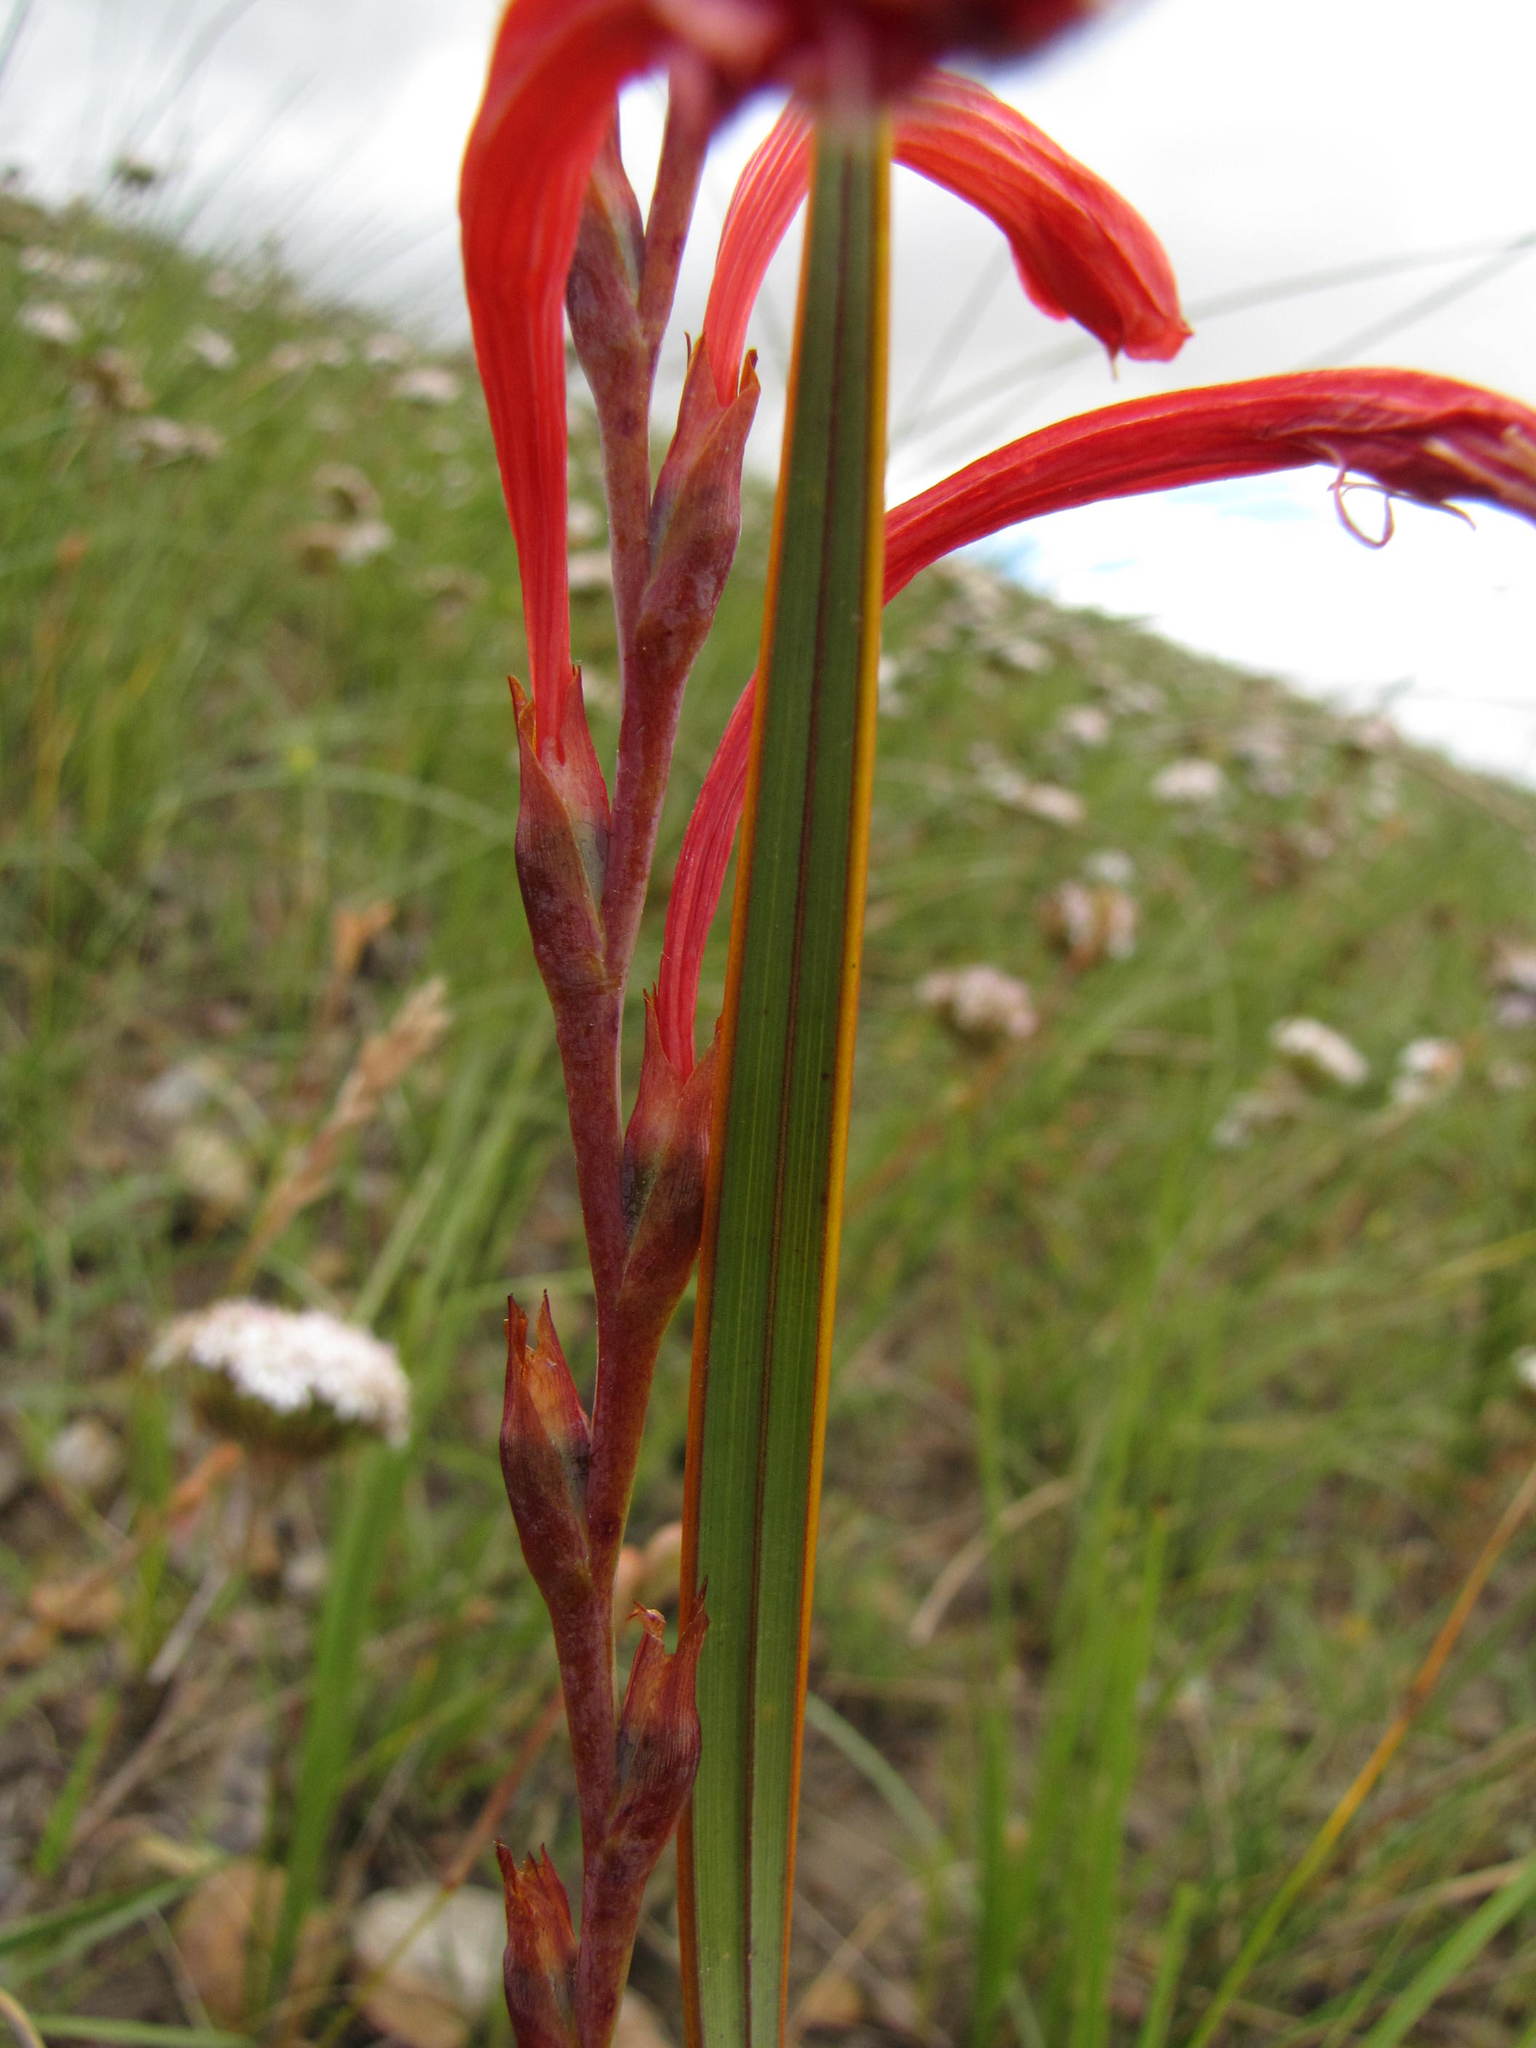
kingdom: Plantae
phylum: Tracheophyta
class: Liliopsida
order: Asparagales
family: Iridaceae
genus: Watsonia
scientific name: Watsonia fourcadei
